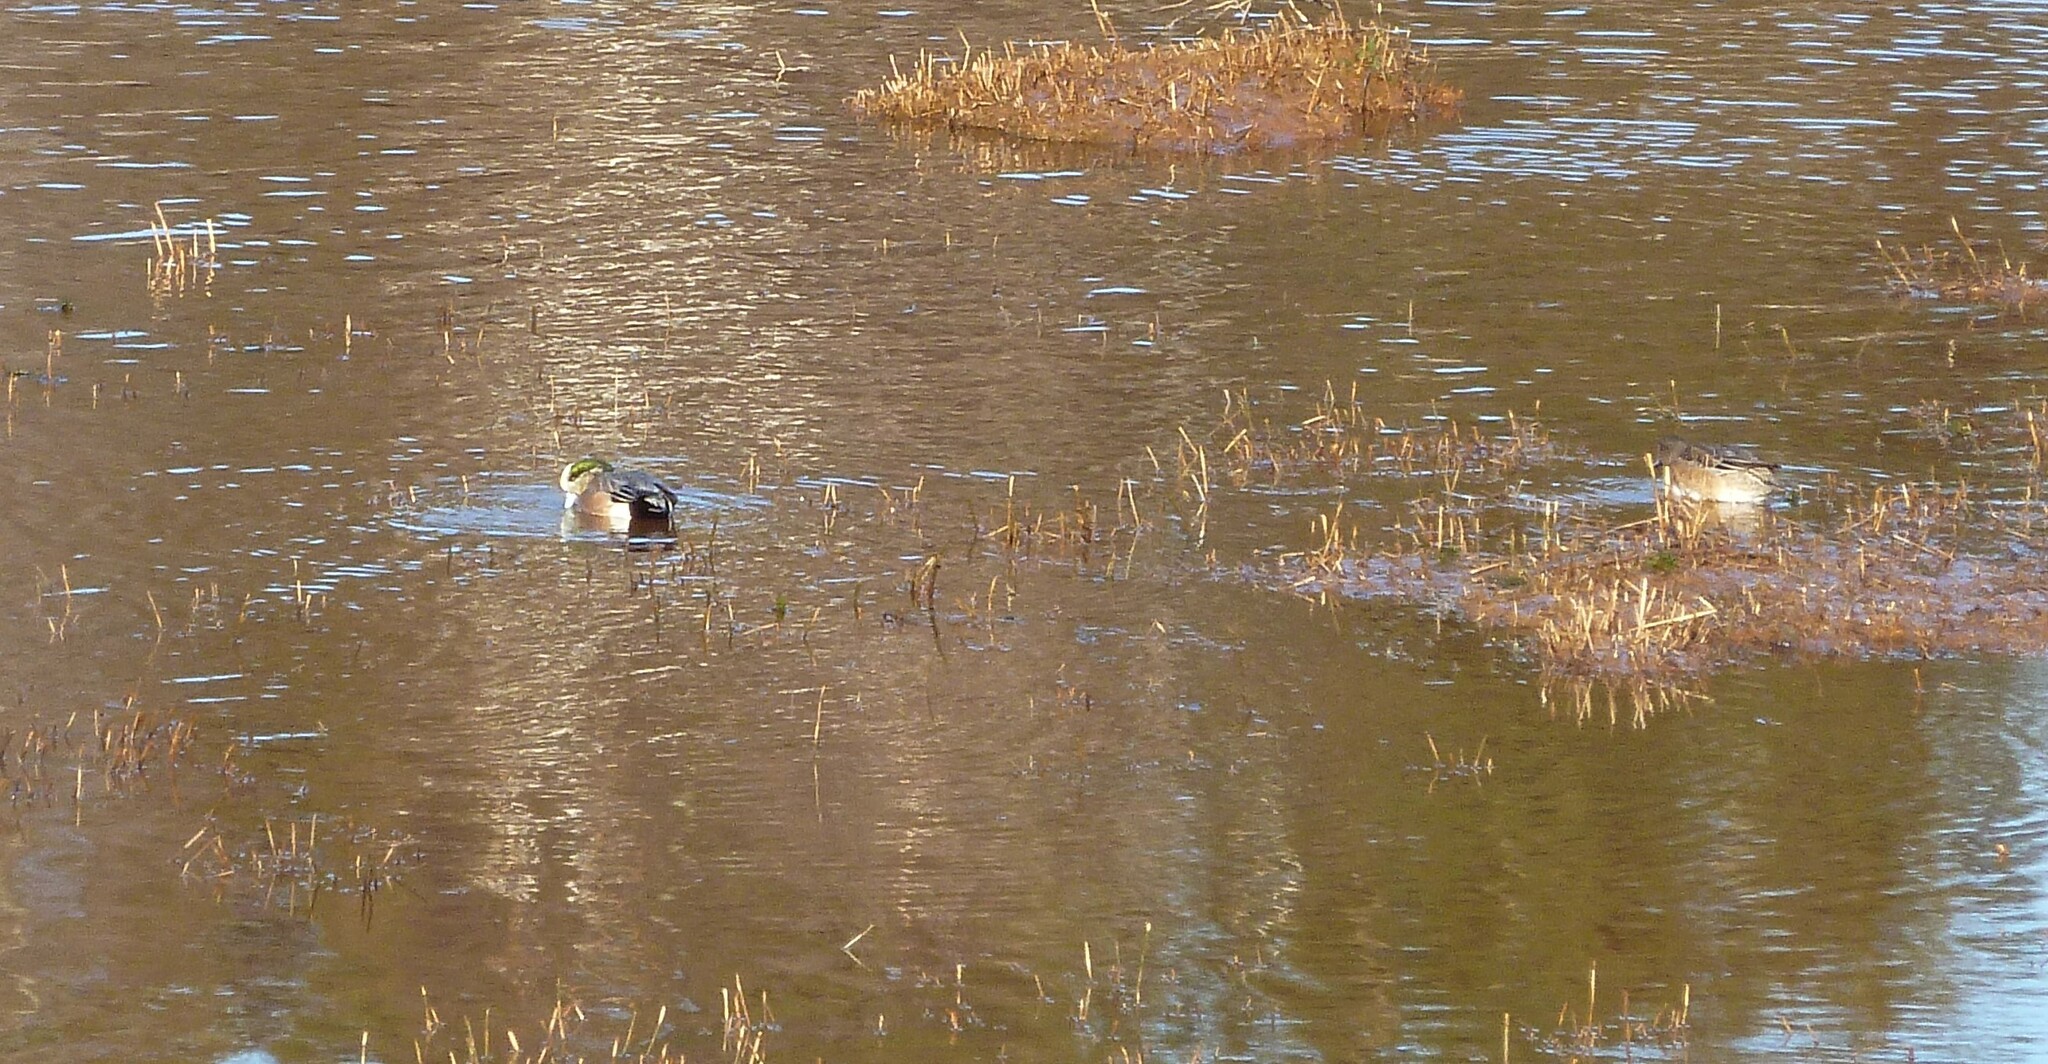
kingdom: Animalia
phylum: Chordata
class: Aves
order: Anseriformes
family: Anatidae
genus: Mareca
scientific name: Mareca americana
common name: American wigeon
